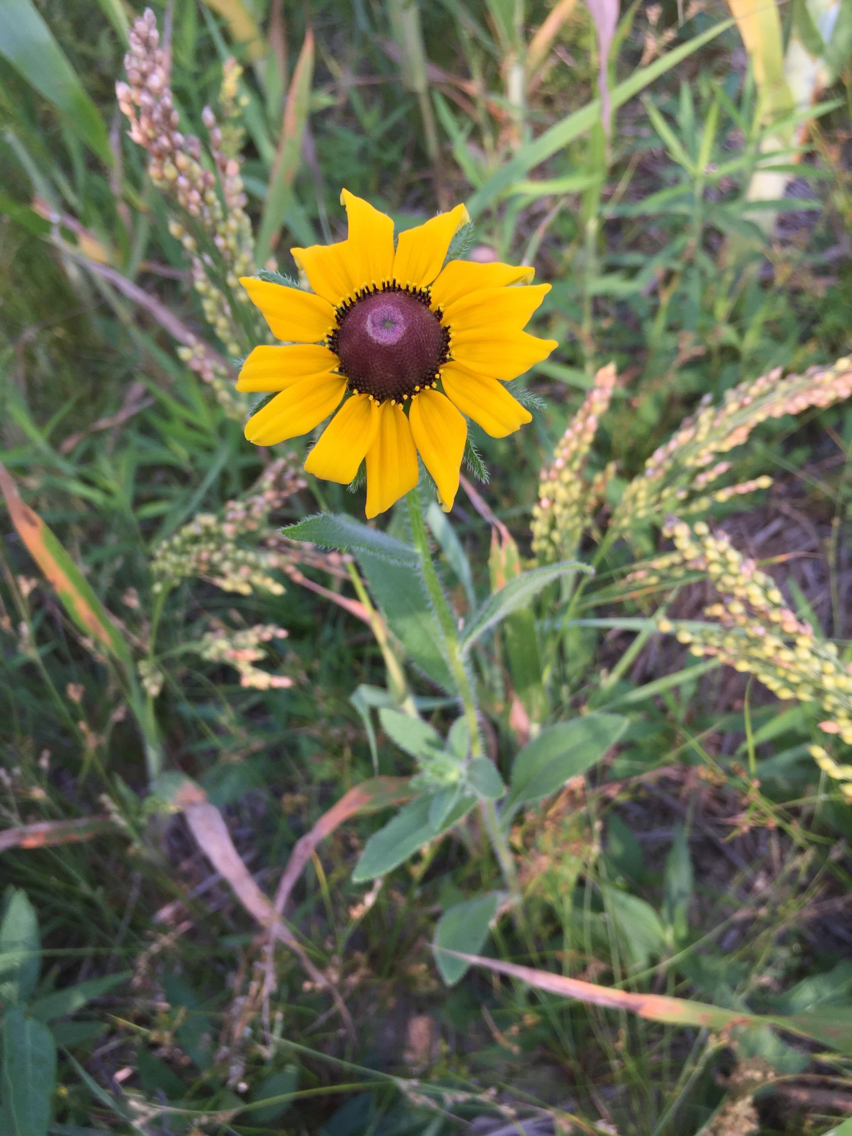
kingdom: Plantae
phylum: Tracheophyta
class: Magnoliopsida
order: Asterales
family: Asteraceae
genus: Rudbeckia
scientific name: Rudbeckia hirta
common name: Black-eyed-susan
